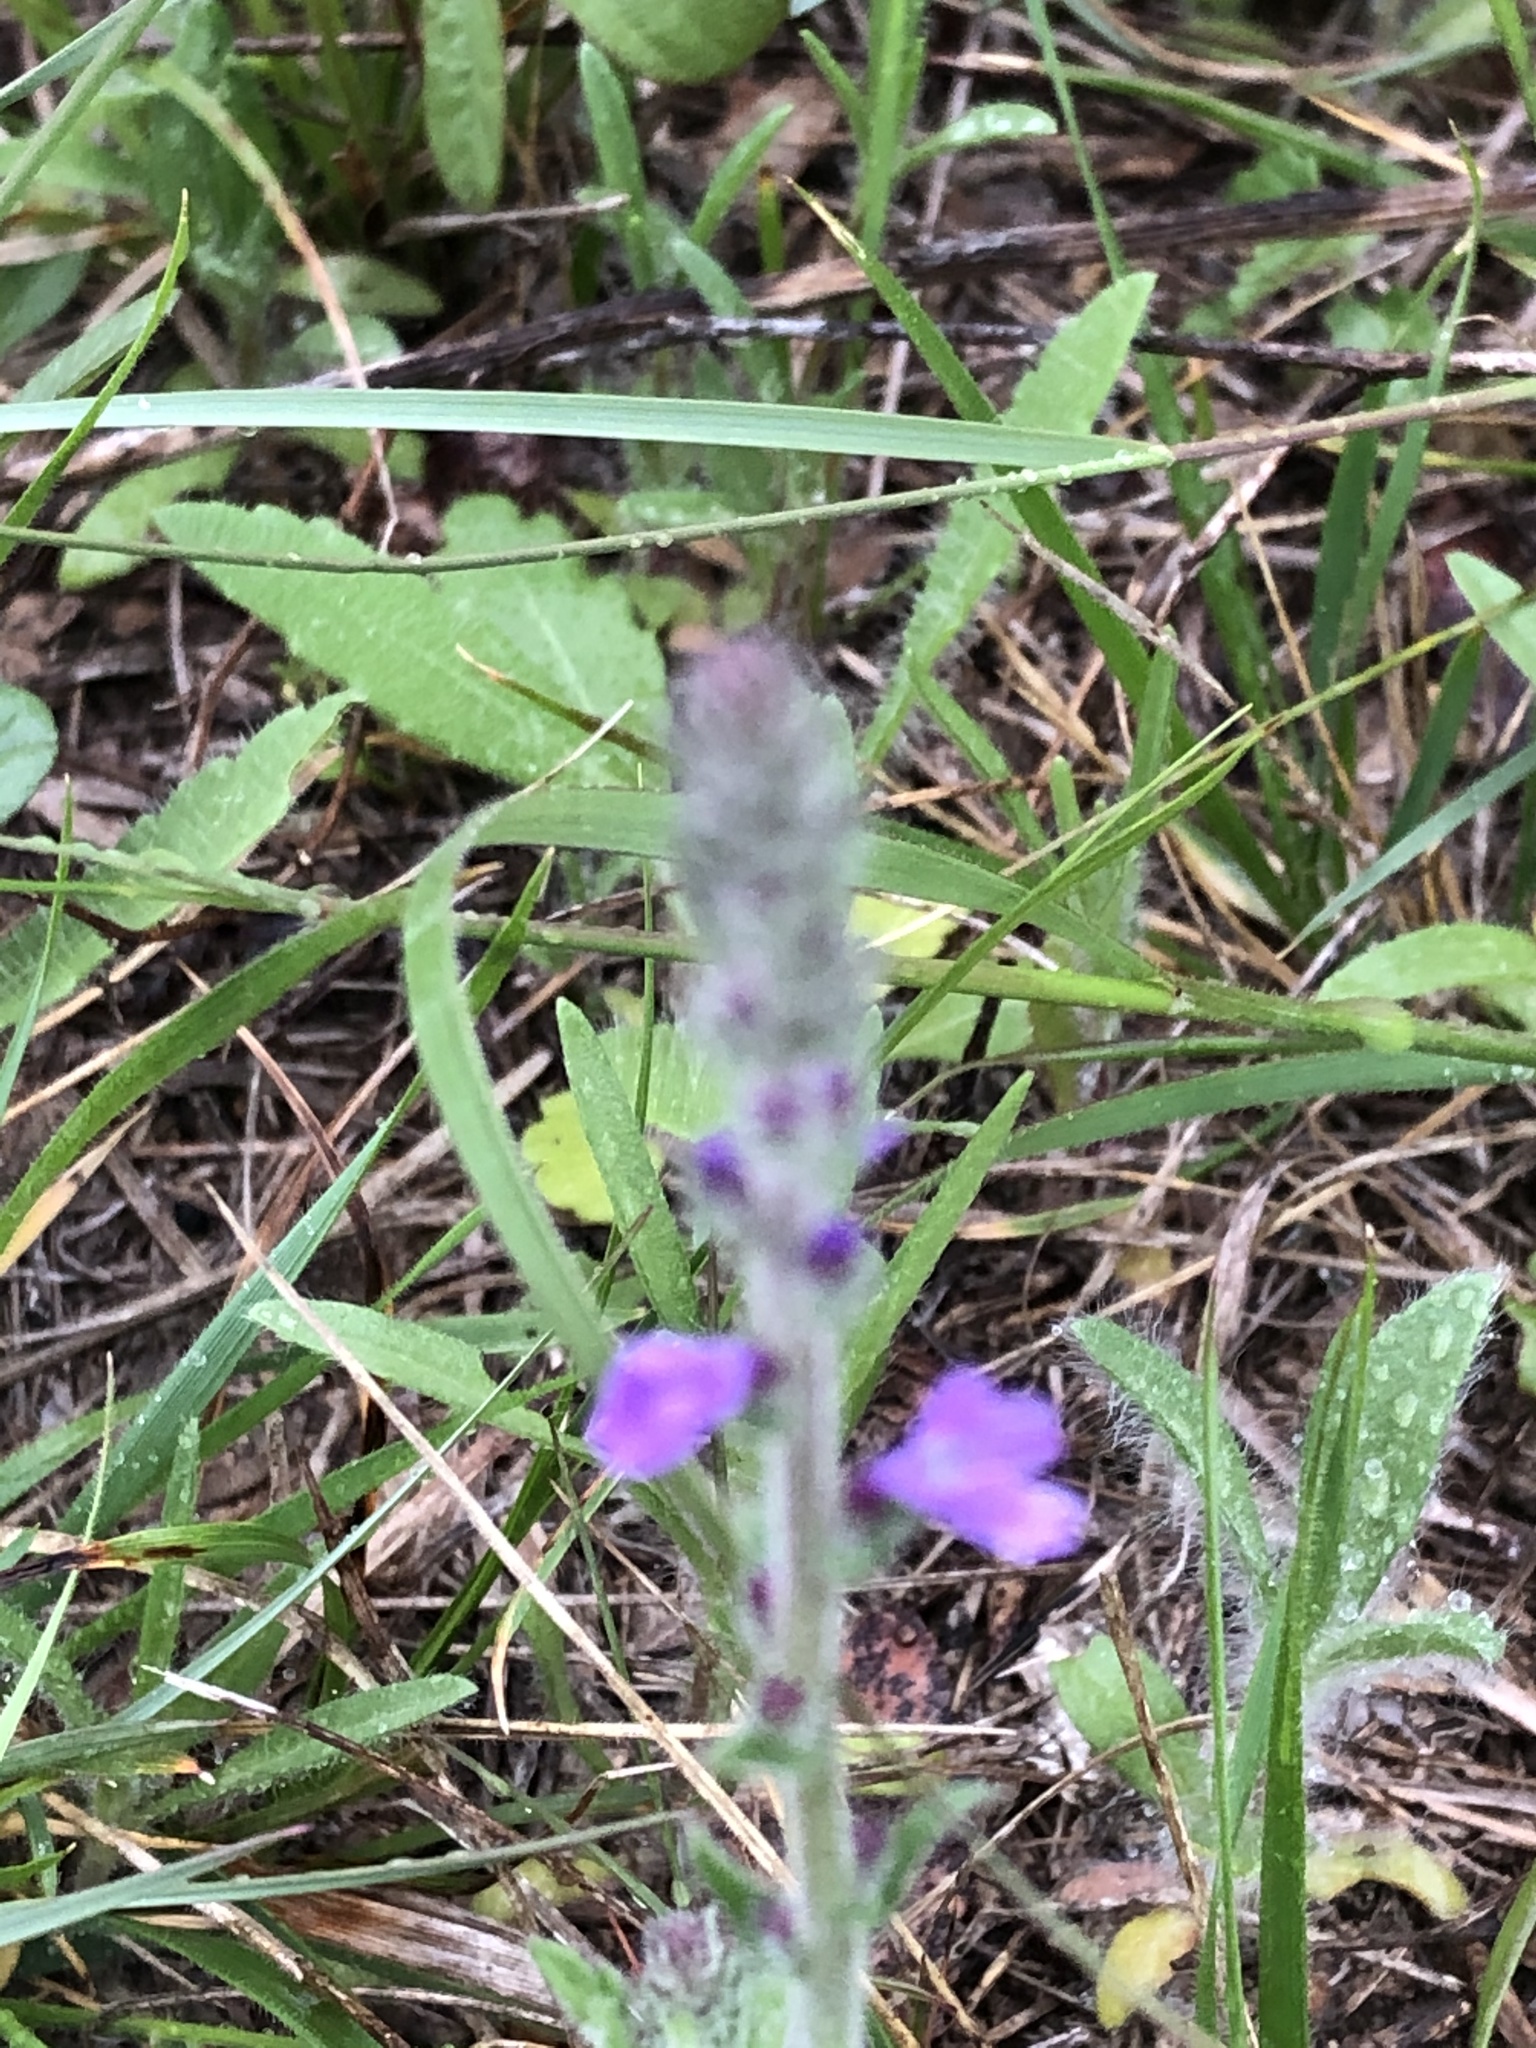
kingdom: Plantae
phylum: Tracheophyta
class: Magnoliopsida
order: Lamiales
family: Verbenaceae
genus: Verbena
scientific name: Verbena canescens
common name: Gray vervain
